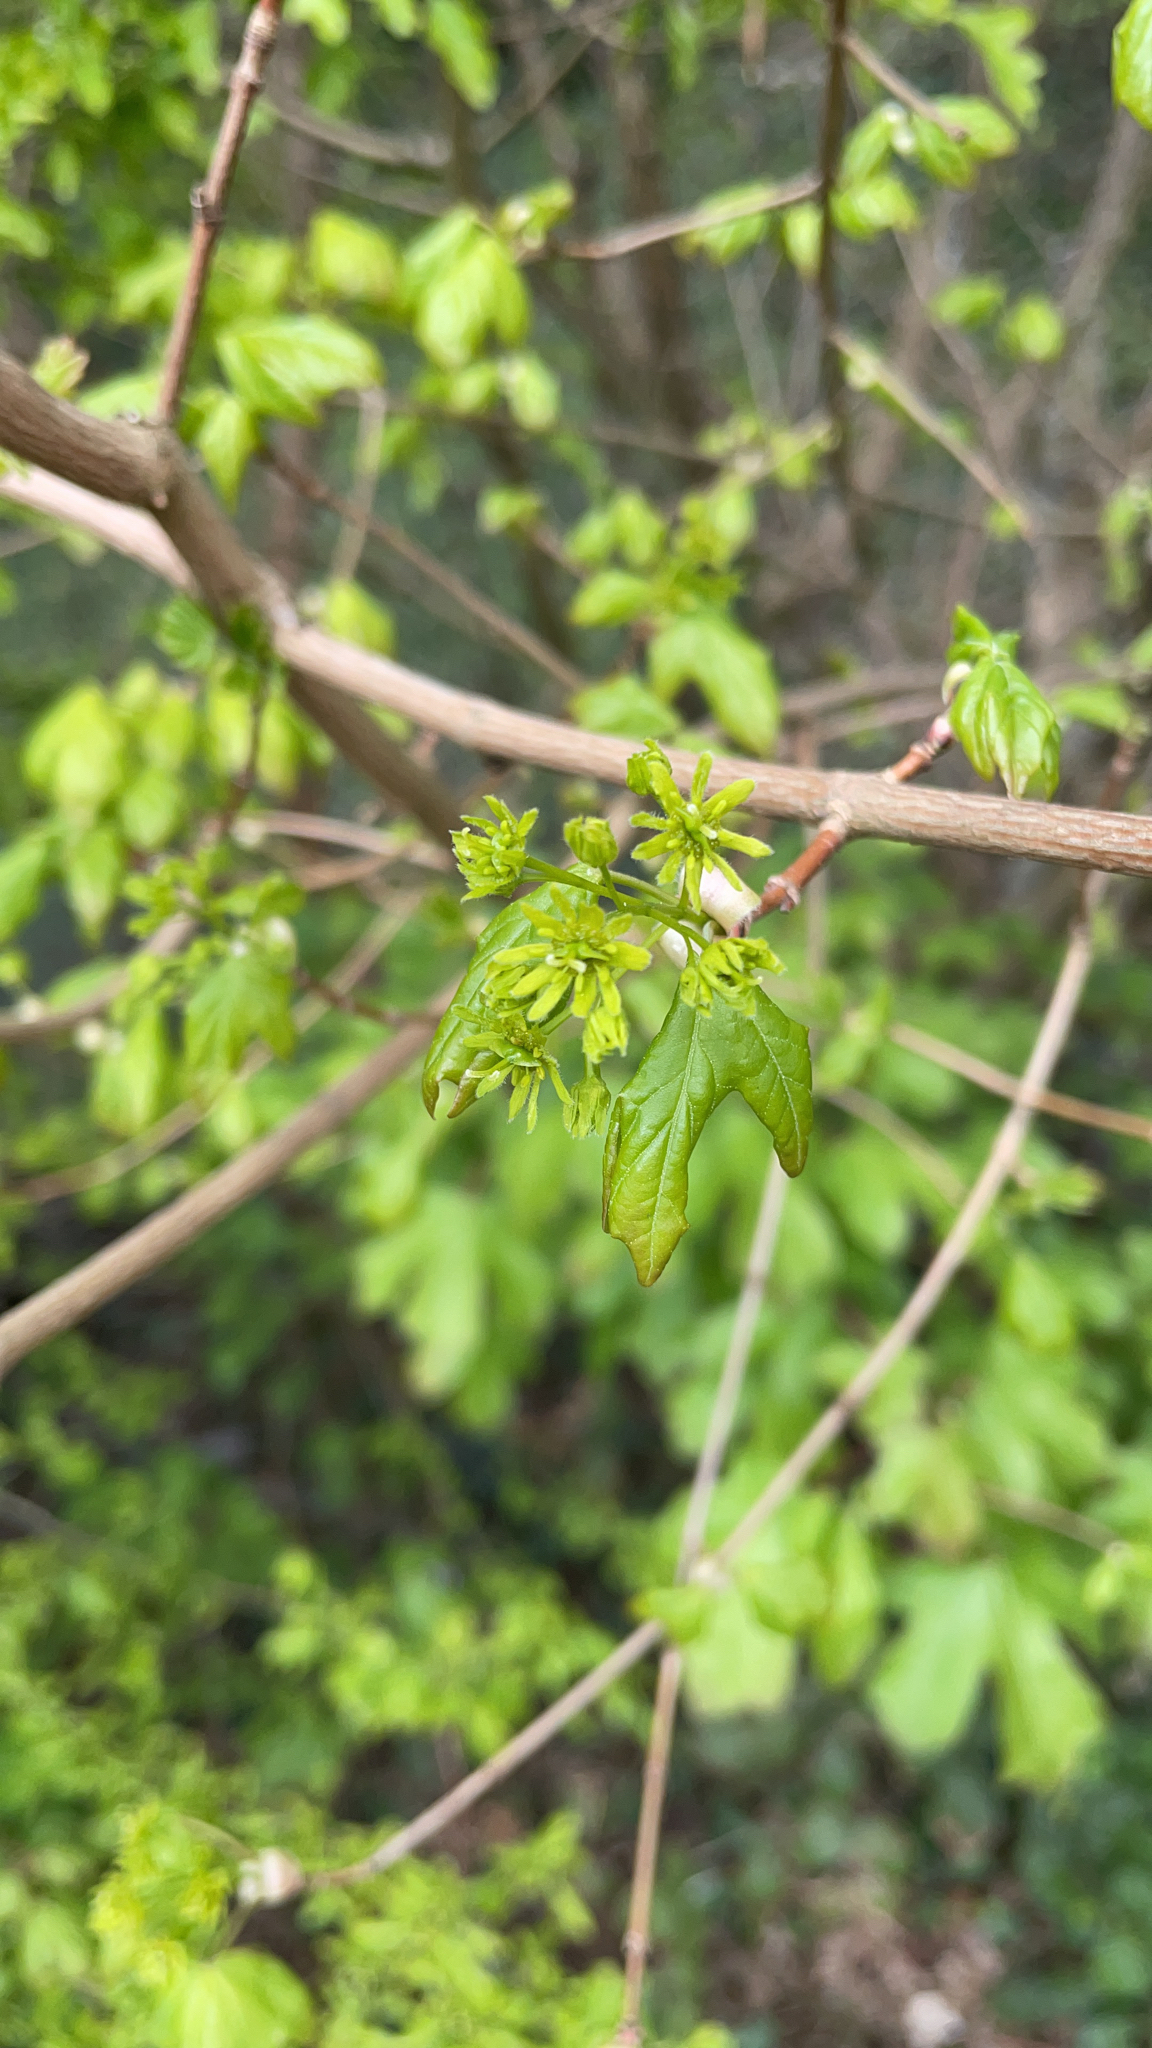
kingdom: Plantae
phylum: Tracheophyta
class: Magnoliopsida
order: Sapindales
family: Sapindaceae
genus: Acer
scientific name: Acer campestre
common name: Field maple
